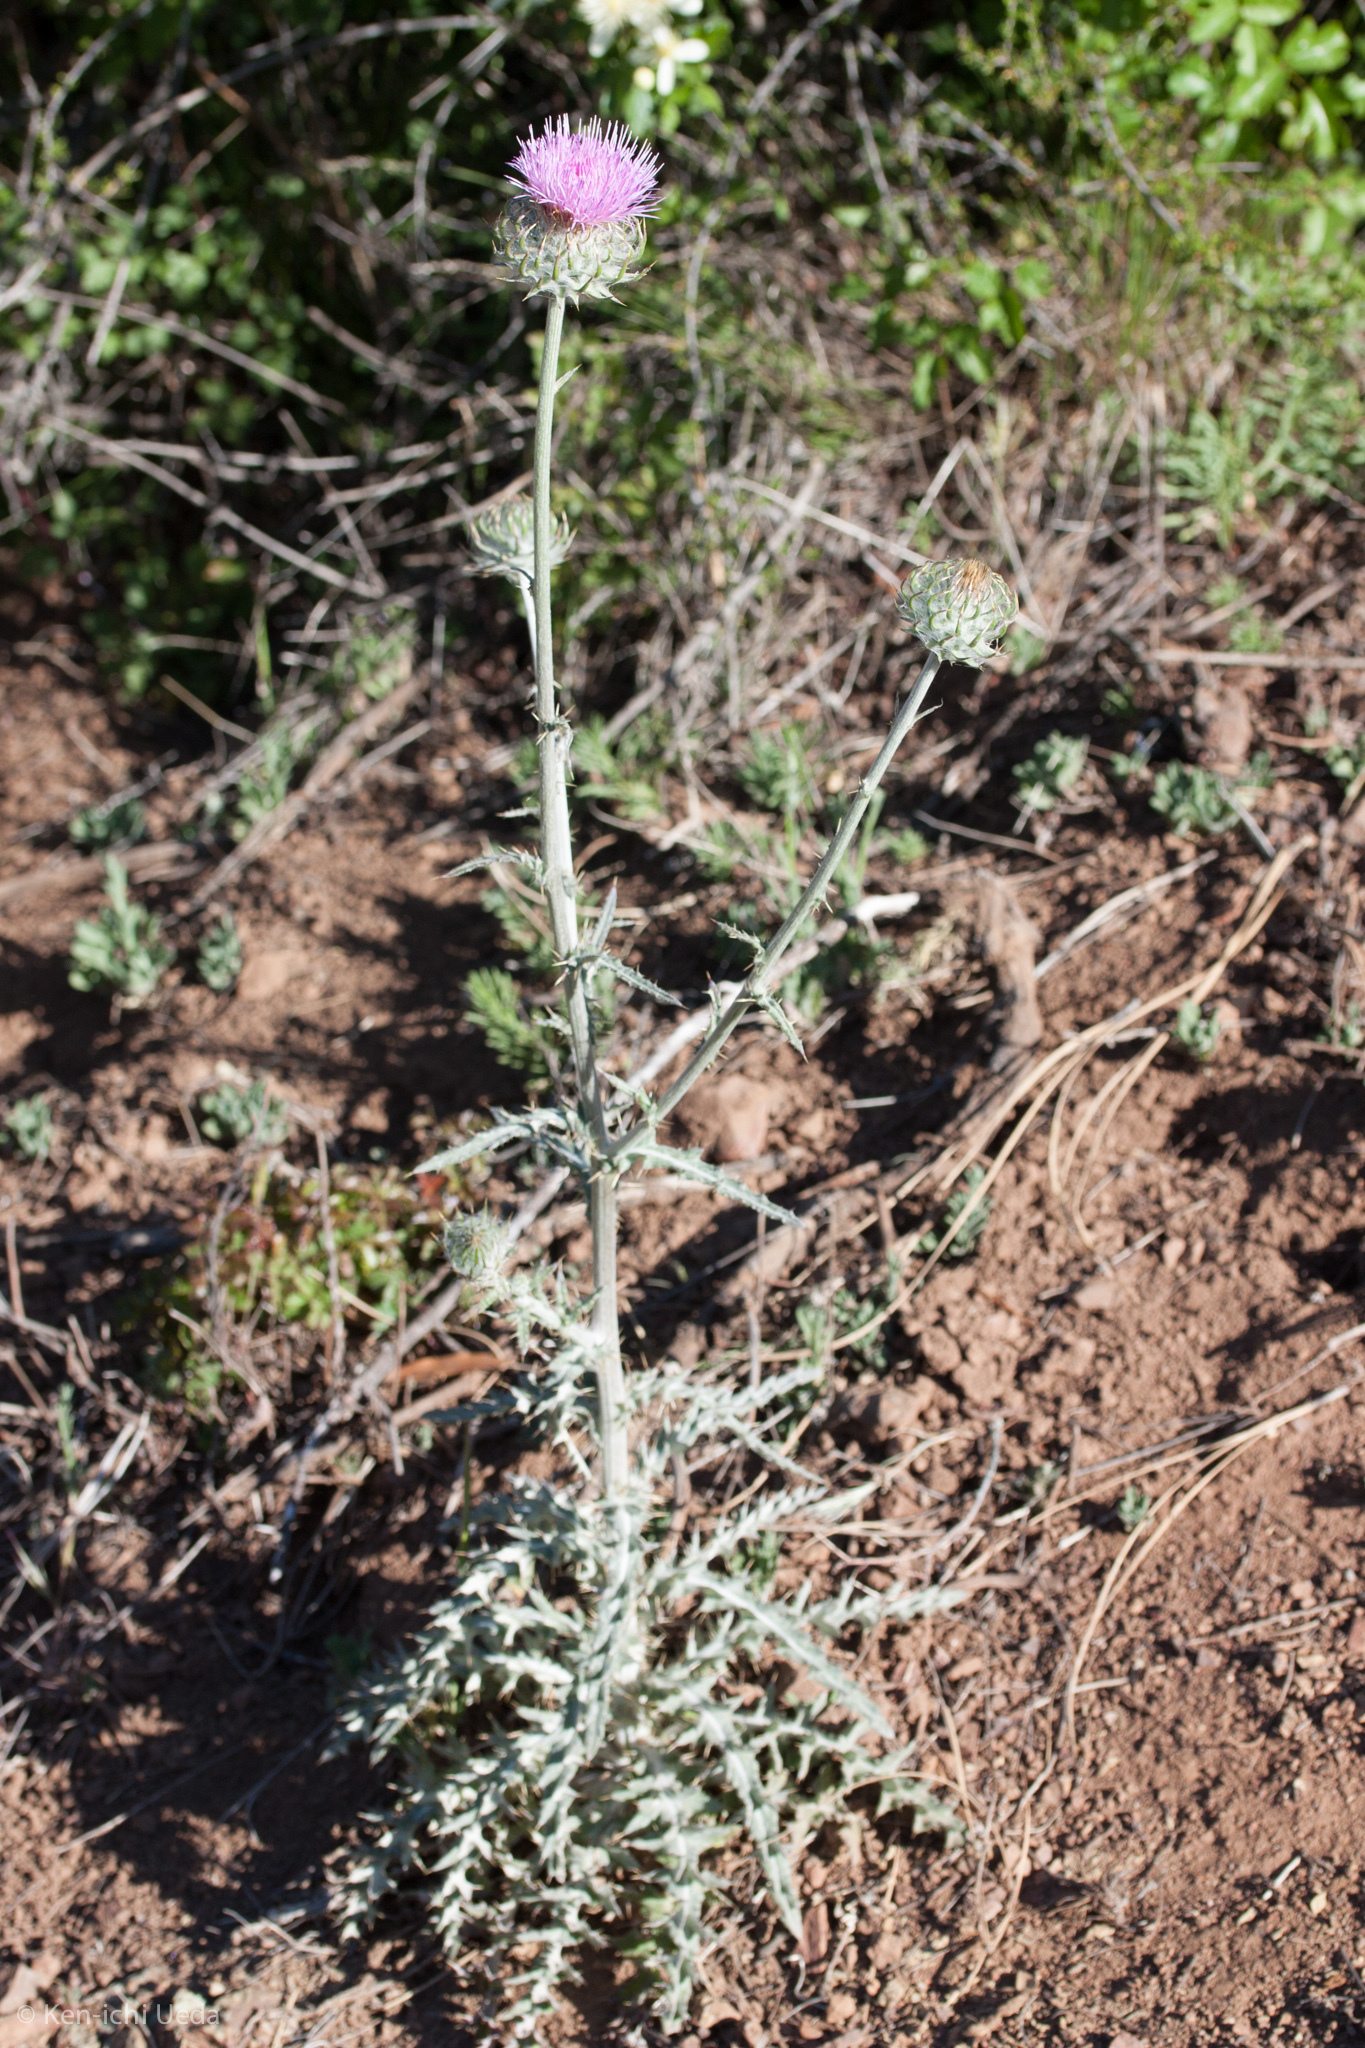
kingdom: Plantae
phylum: Tracheophyta
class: Magnoliopsida
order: Asterales
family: Asteraceae
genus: Cirsium
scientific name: Cirsium occidentale
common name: Western thistle
